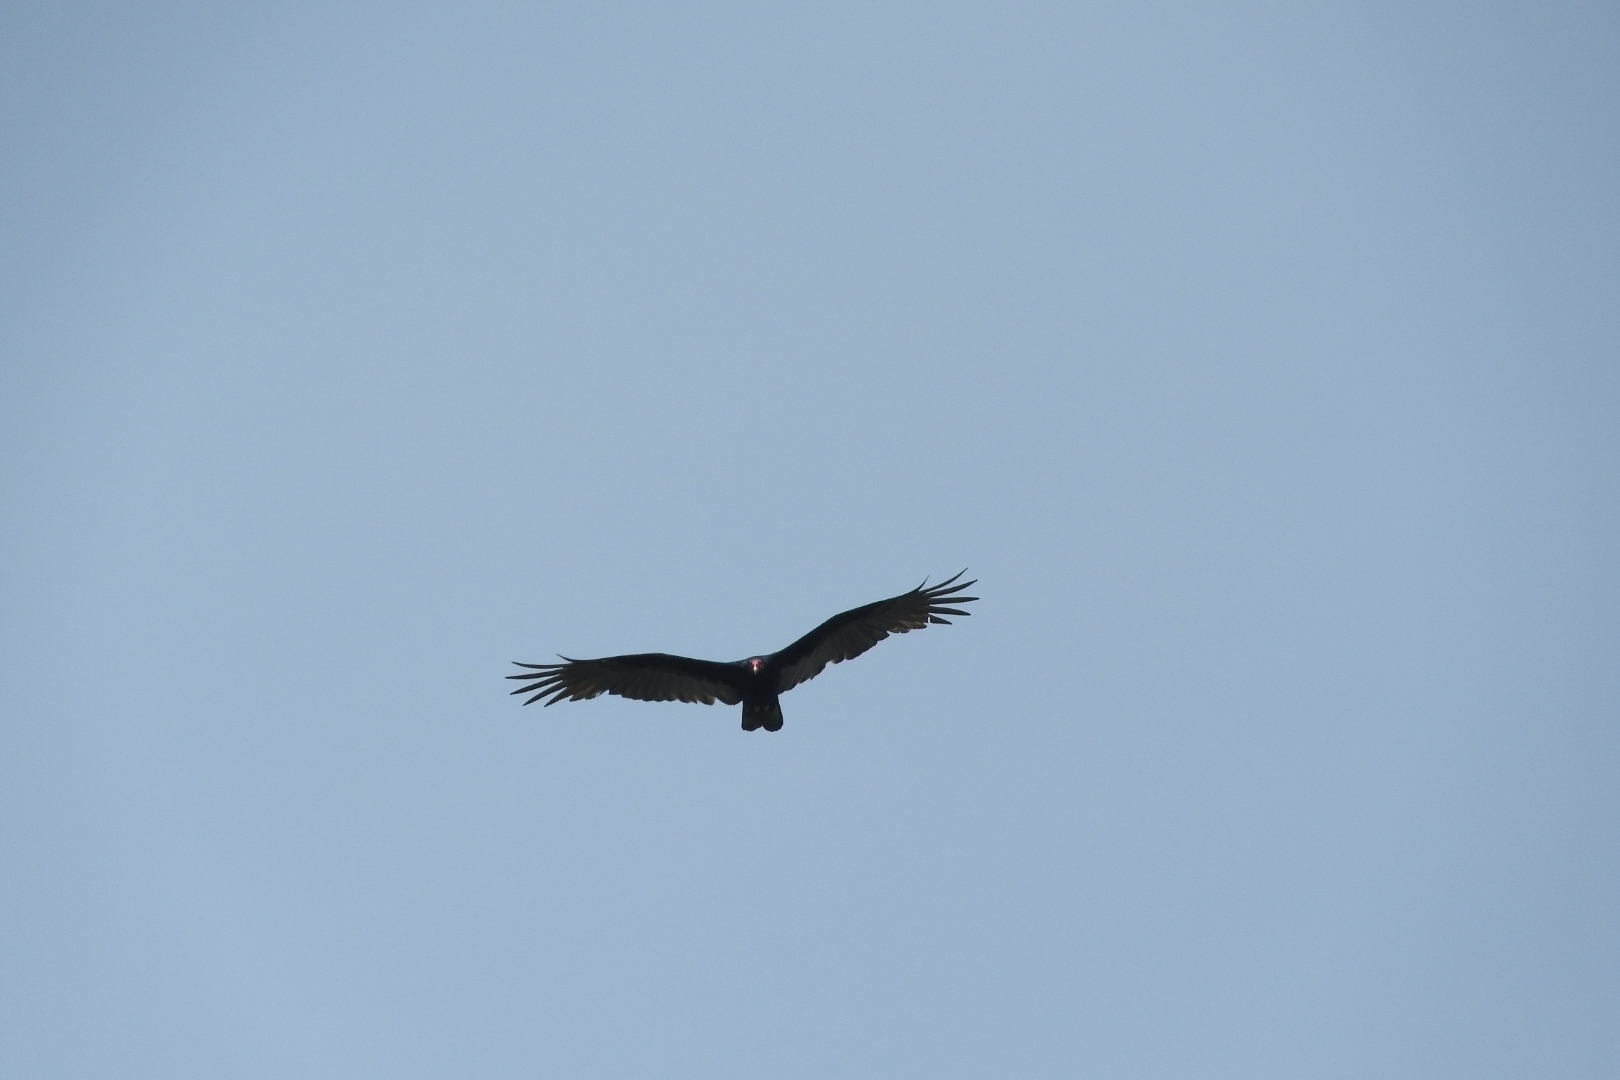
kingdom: Animalia
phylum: Chordata
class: Aves
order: Accipitriformes
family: Cathartidae
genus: Cathartes
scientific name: Cathartes aura
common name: Turkey vulture
